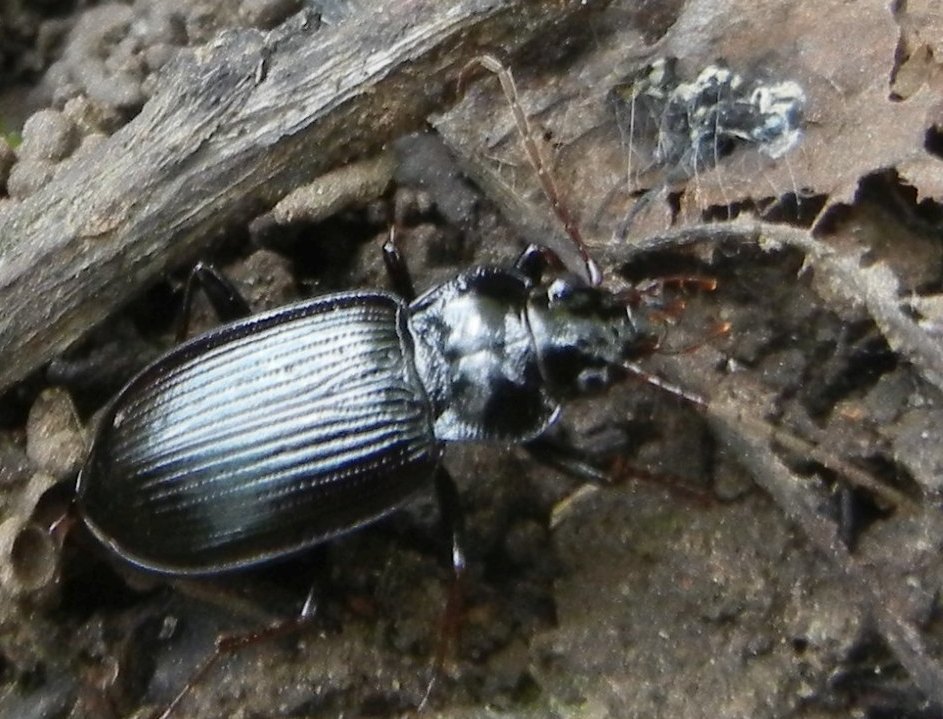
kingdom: Animalia
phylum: Arthropoda
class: Insecta
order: Coleoptera
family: Carabidae
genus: Nebria
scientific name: Nebria brevicollis
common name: Short-necked gazelle beetle
